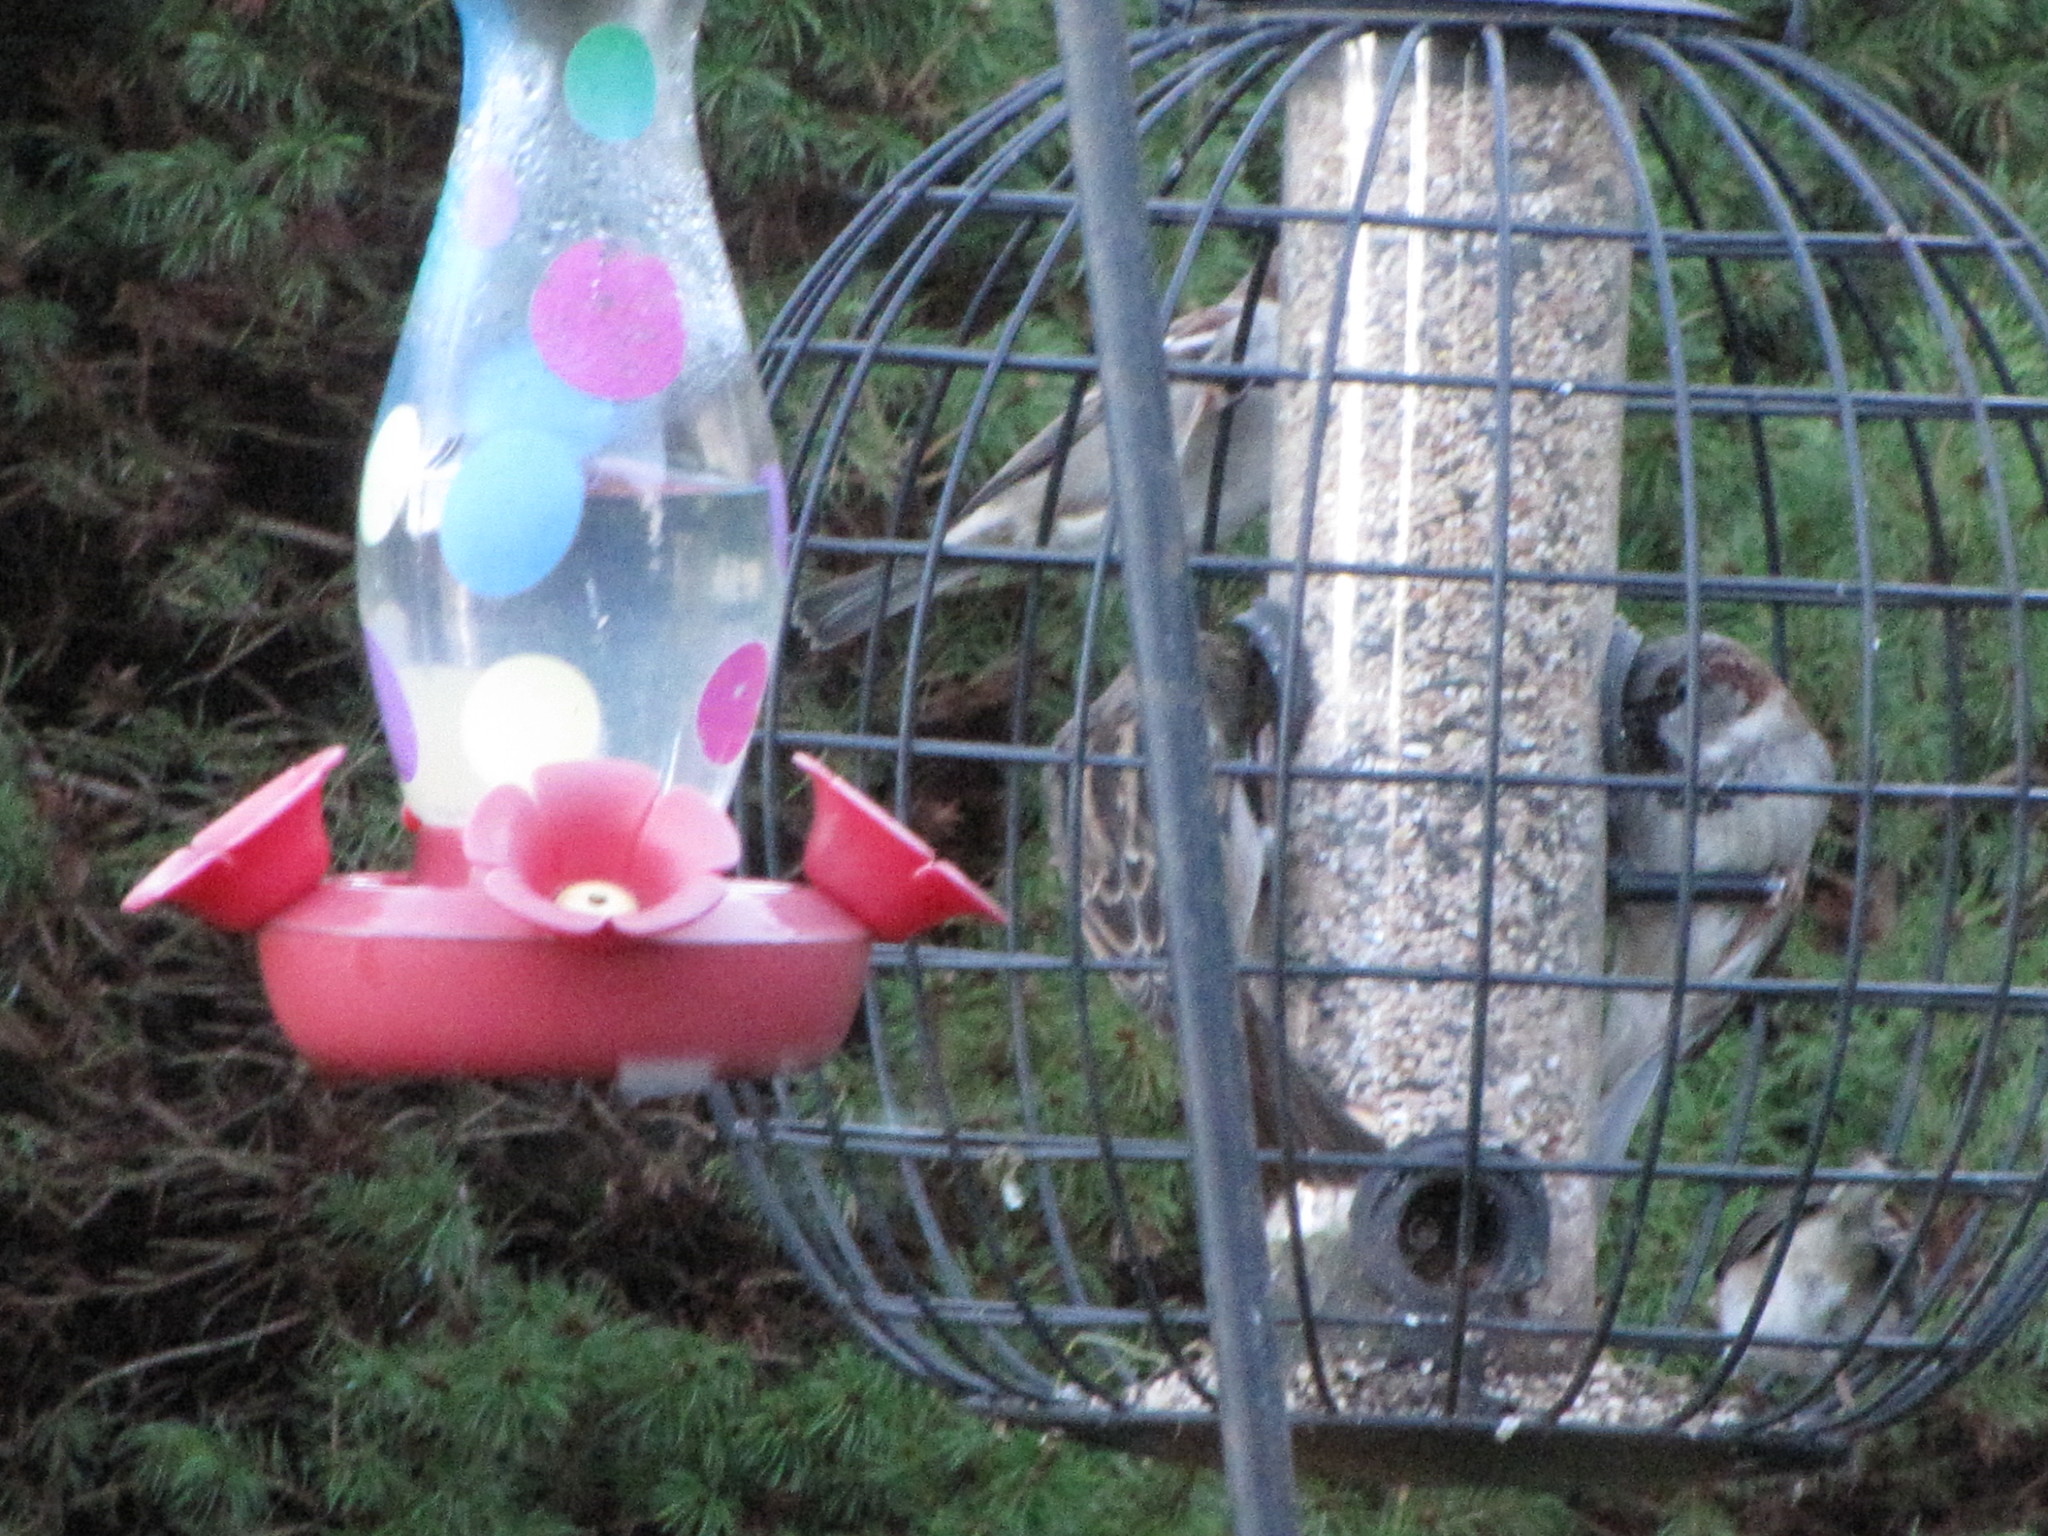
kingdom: Animalia
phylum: Chordata
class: Aves
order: Passeriformes
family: Passeridae
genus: Passer
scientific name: Passer domesticus
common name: House sparrow
